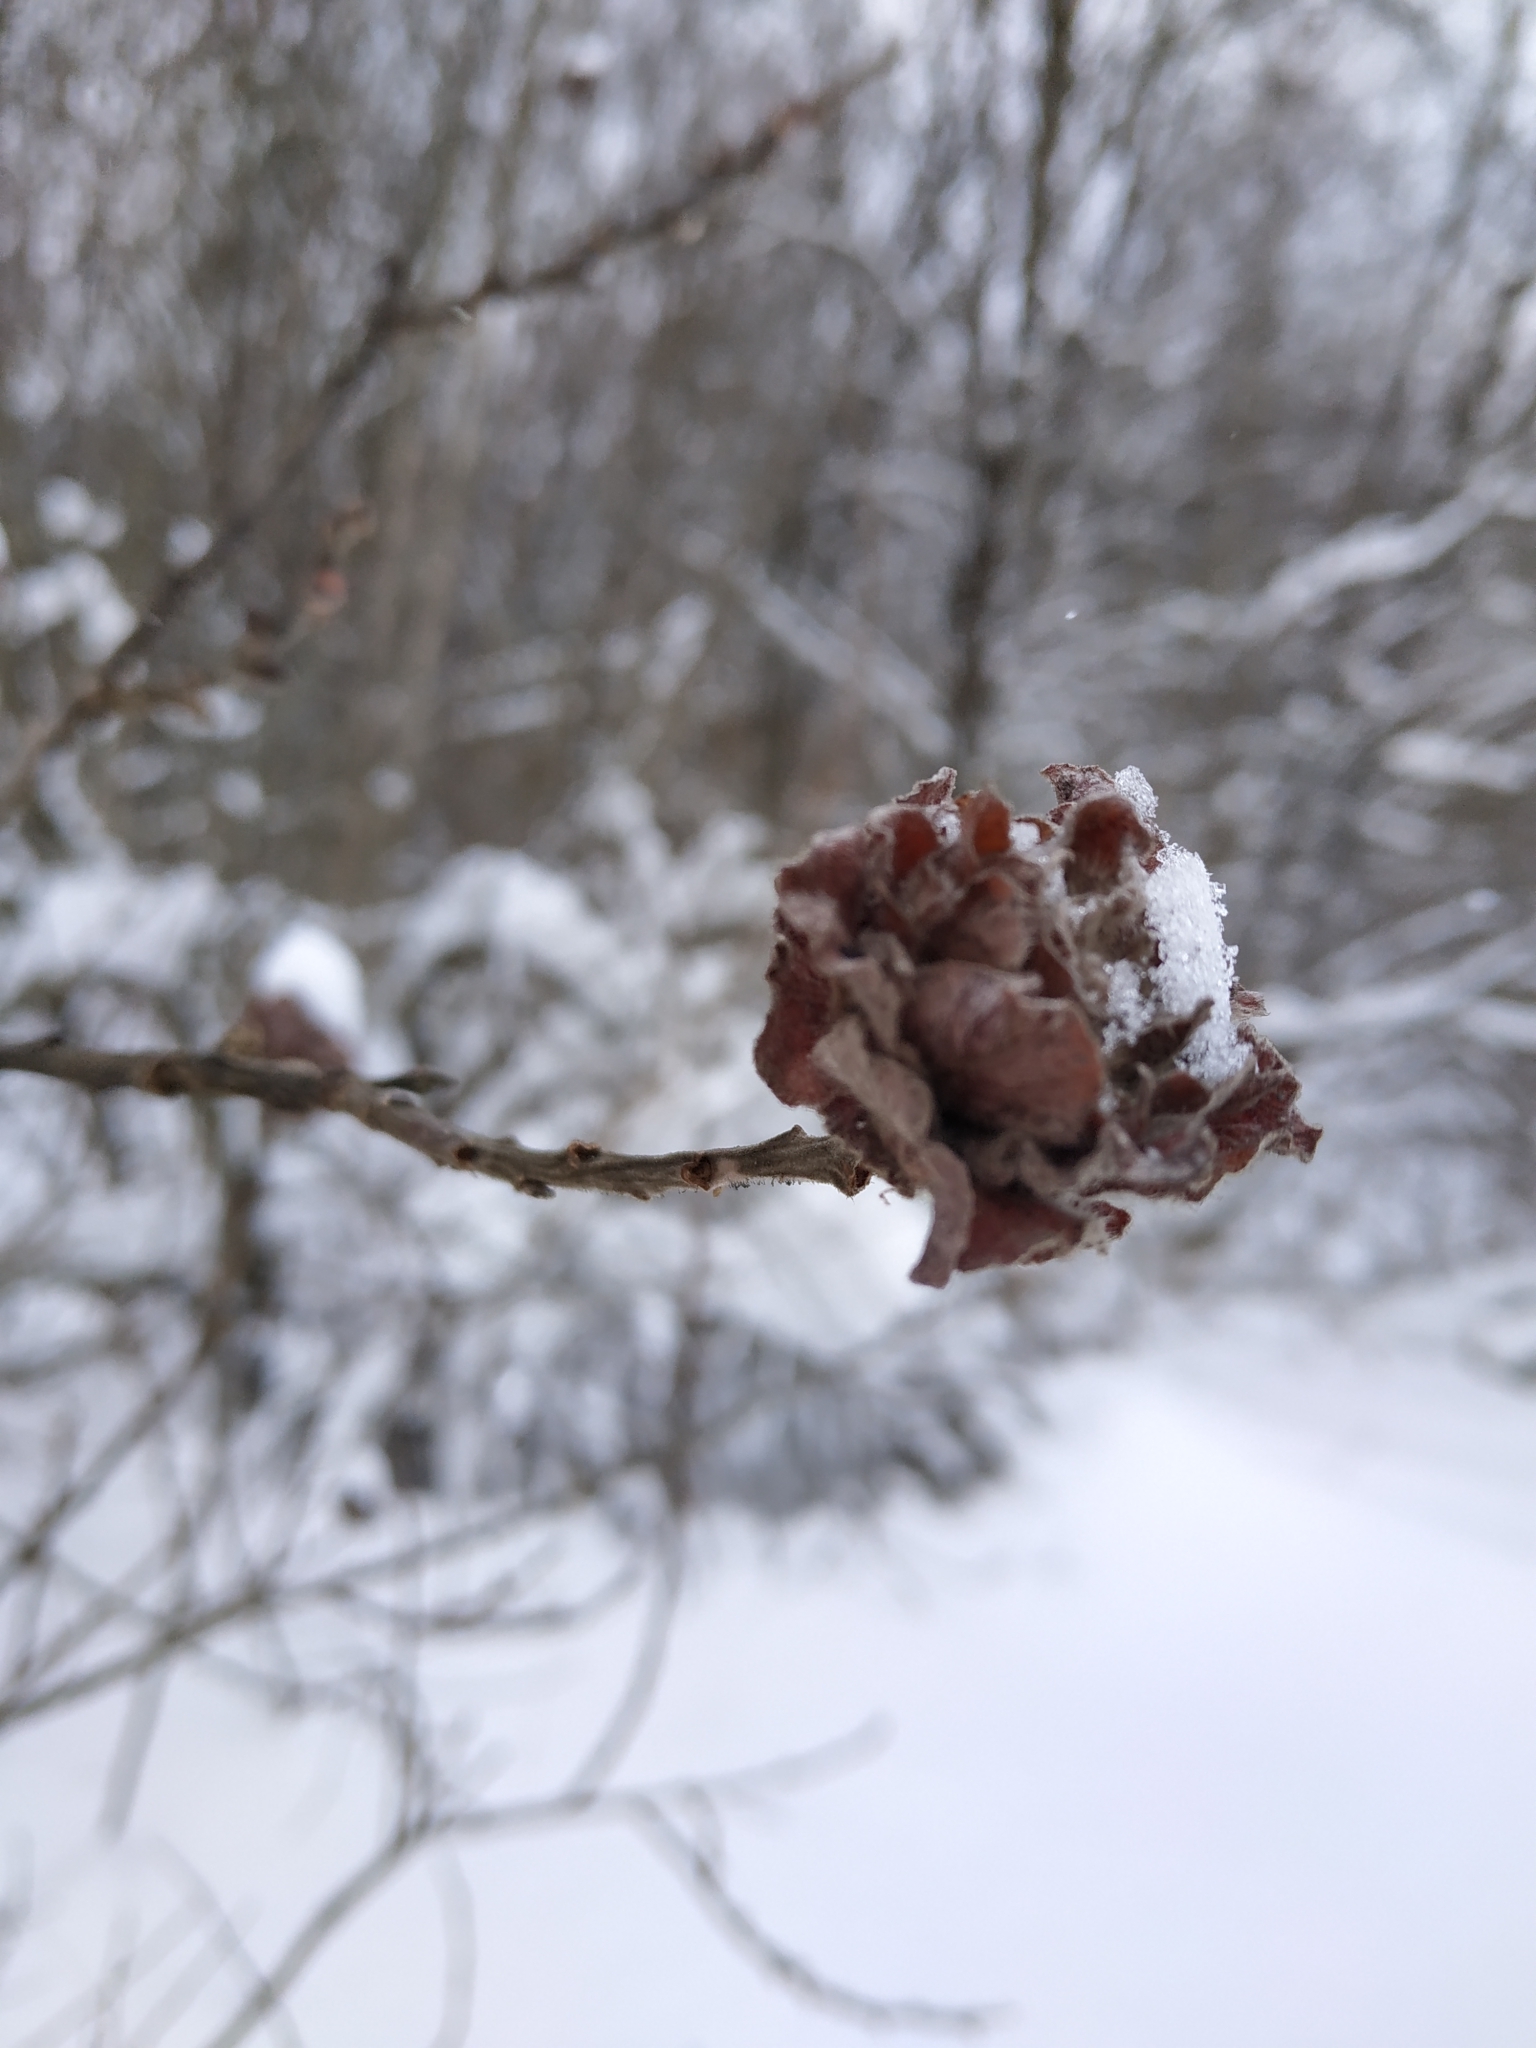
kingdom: Animalia
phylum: Arthropoda
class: Insecta
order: Diptera
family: Cecidomyiidae
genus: Rabdophaga
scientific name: Rabdophaga rosaria
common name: Willow rose gall midge
